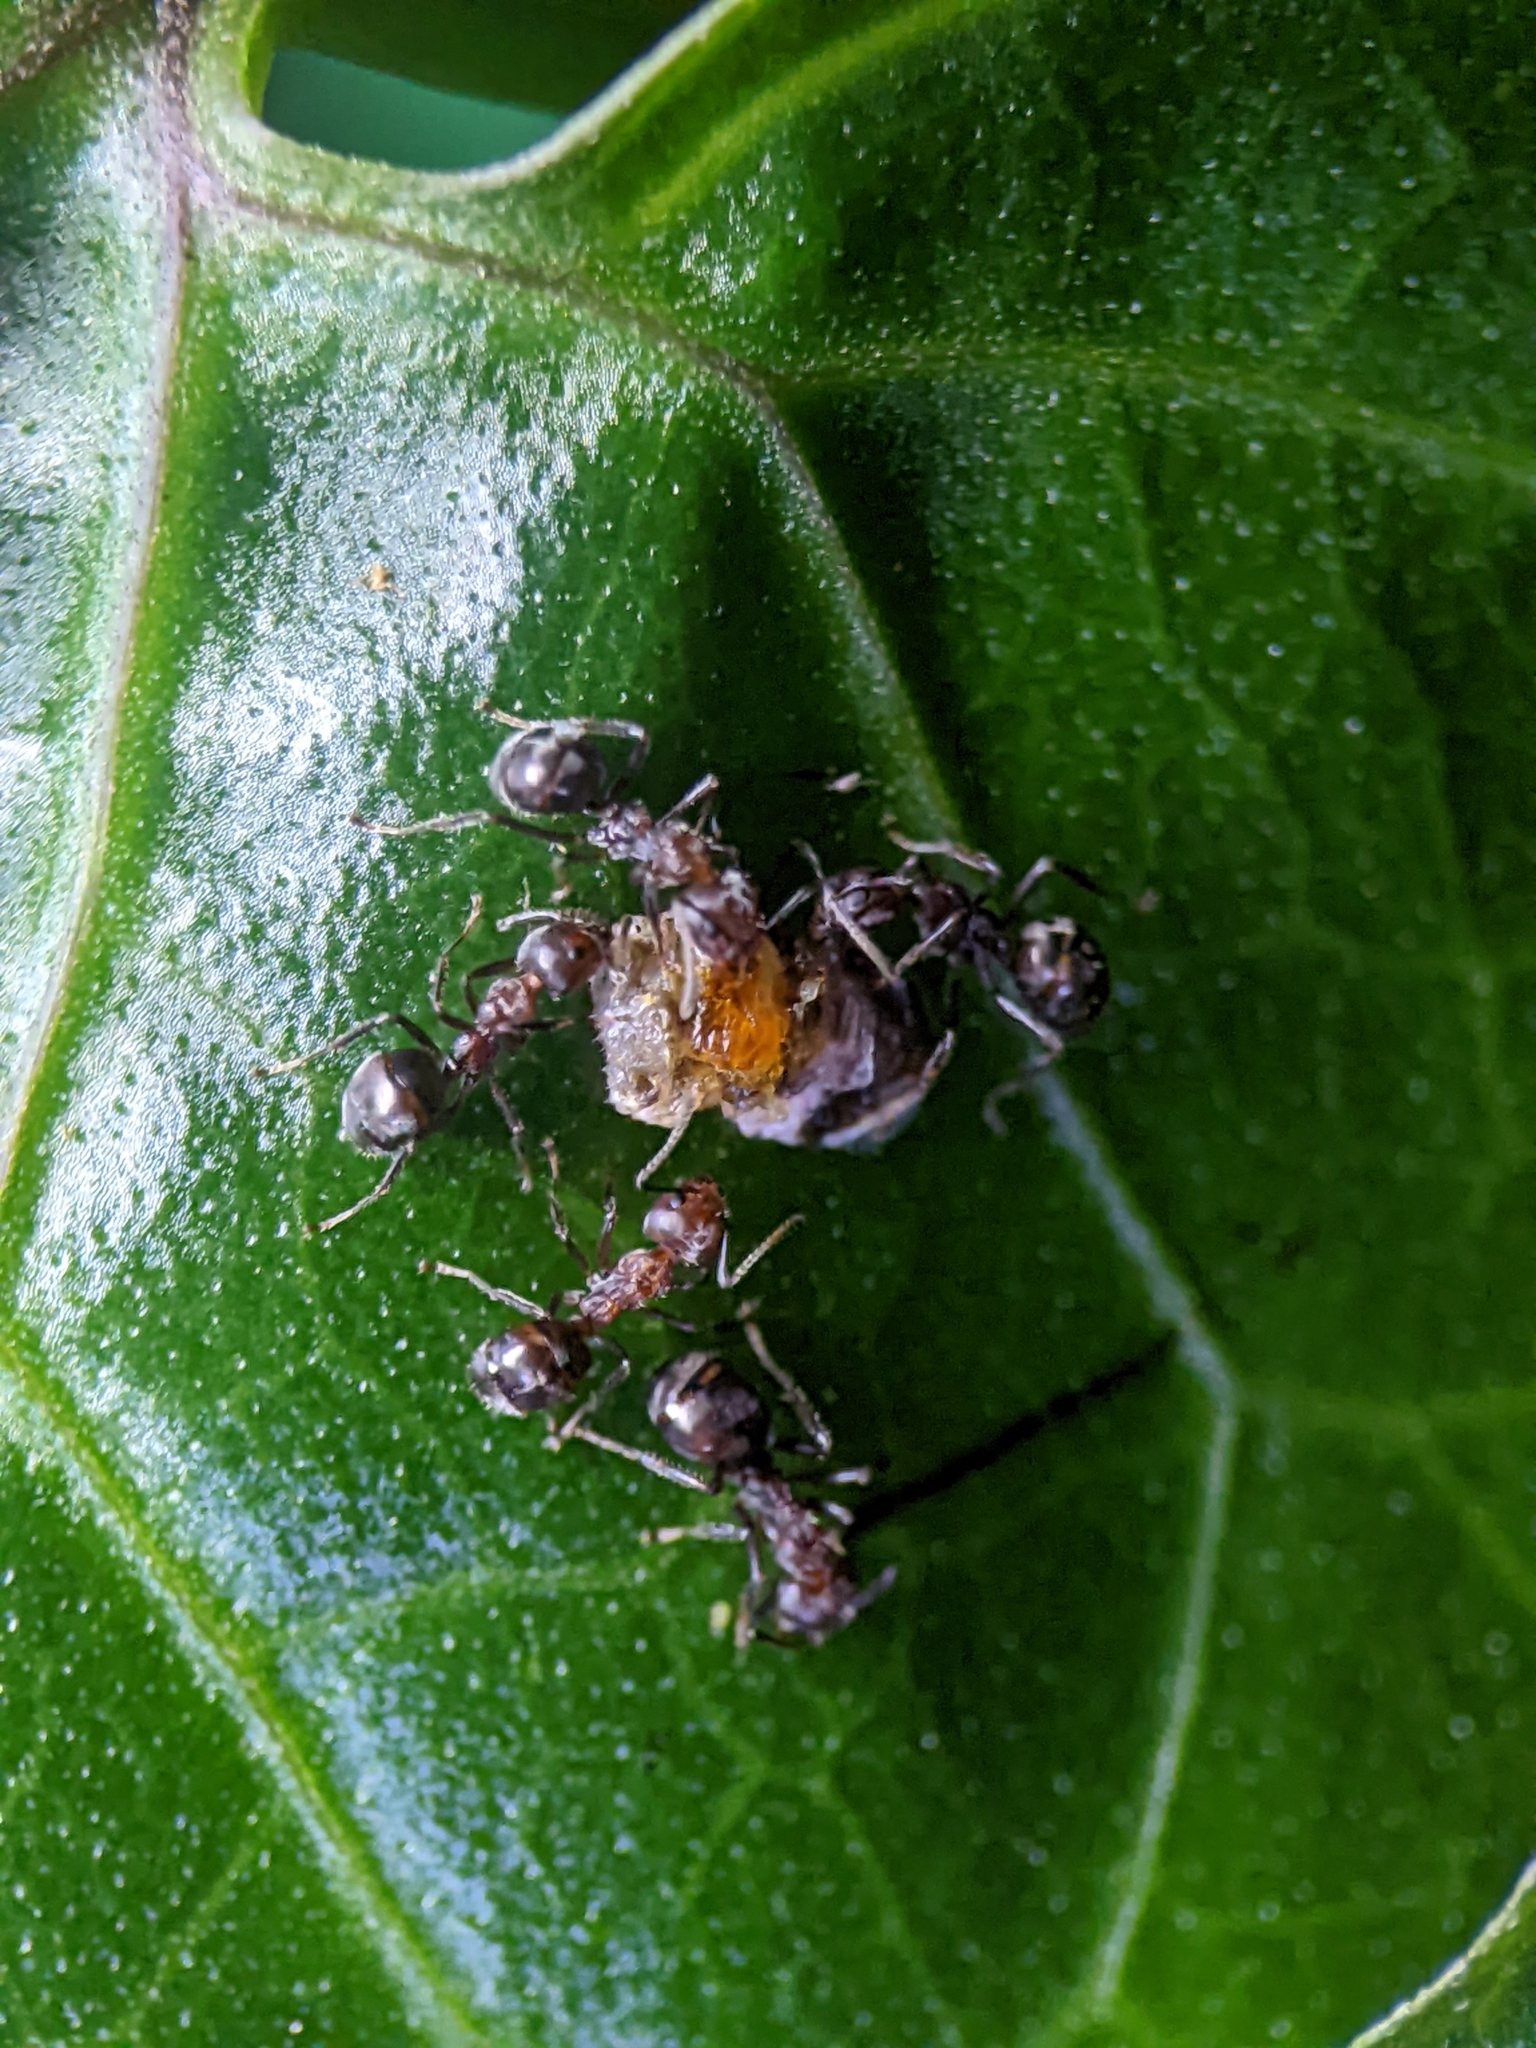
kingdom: Animalia
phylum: Arthropoda
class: Insecta
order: Hymenoptera
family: Formicidae
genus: Dolichoderus
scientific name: Dolichoderus thoracicus
